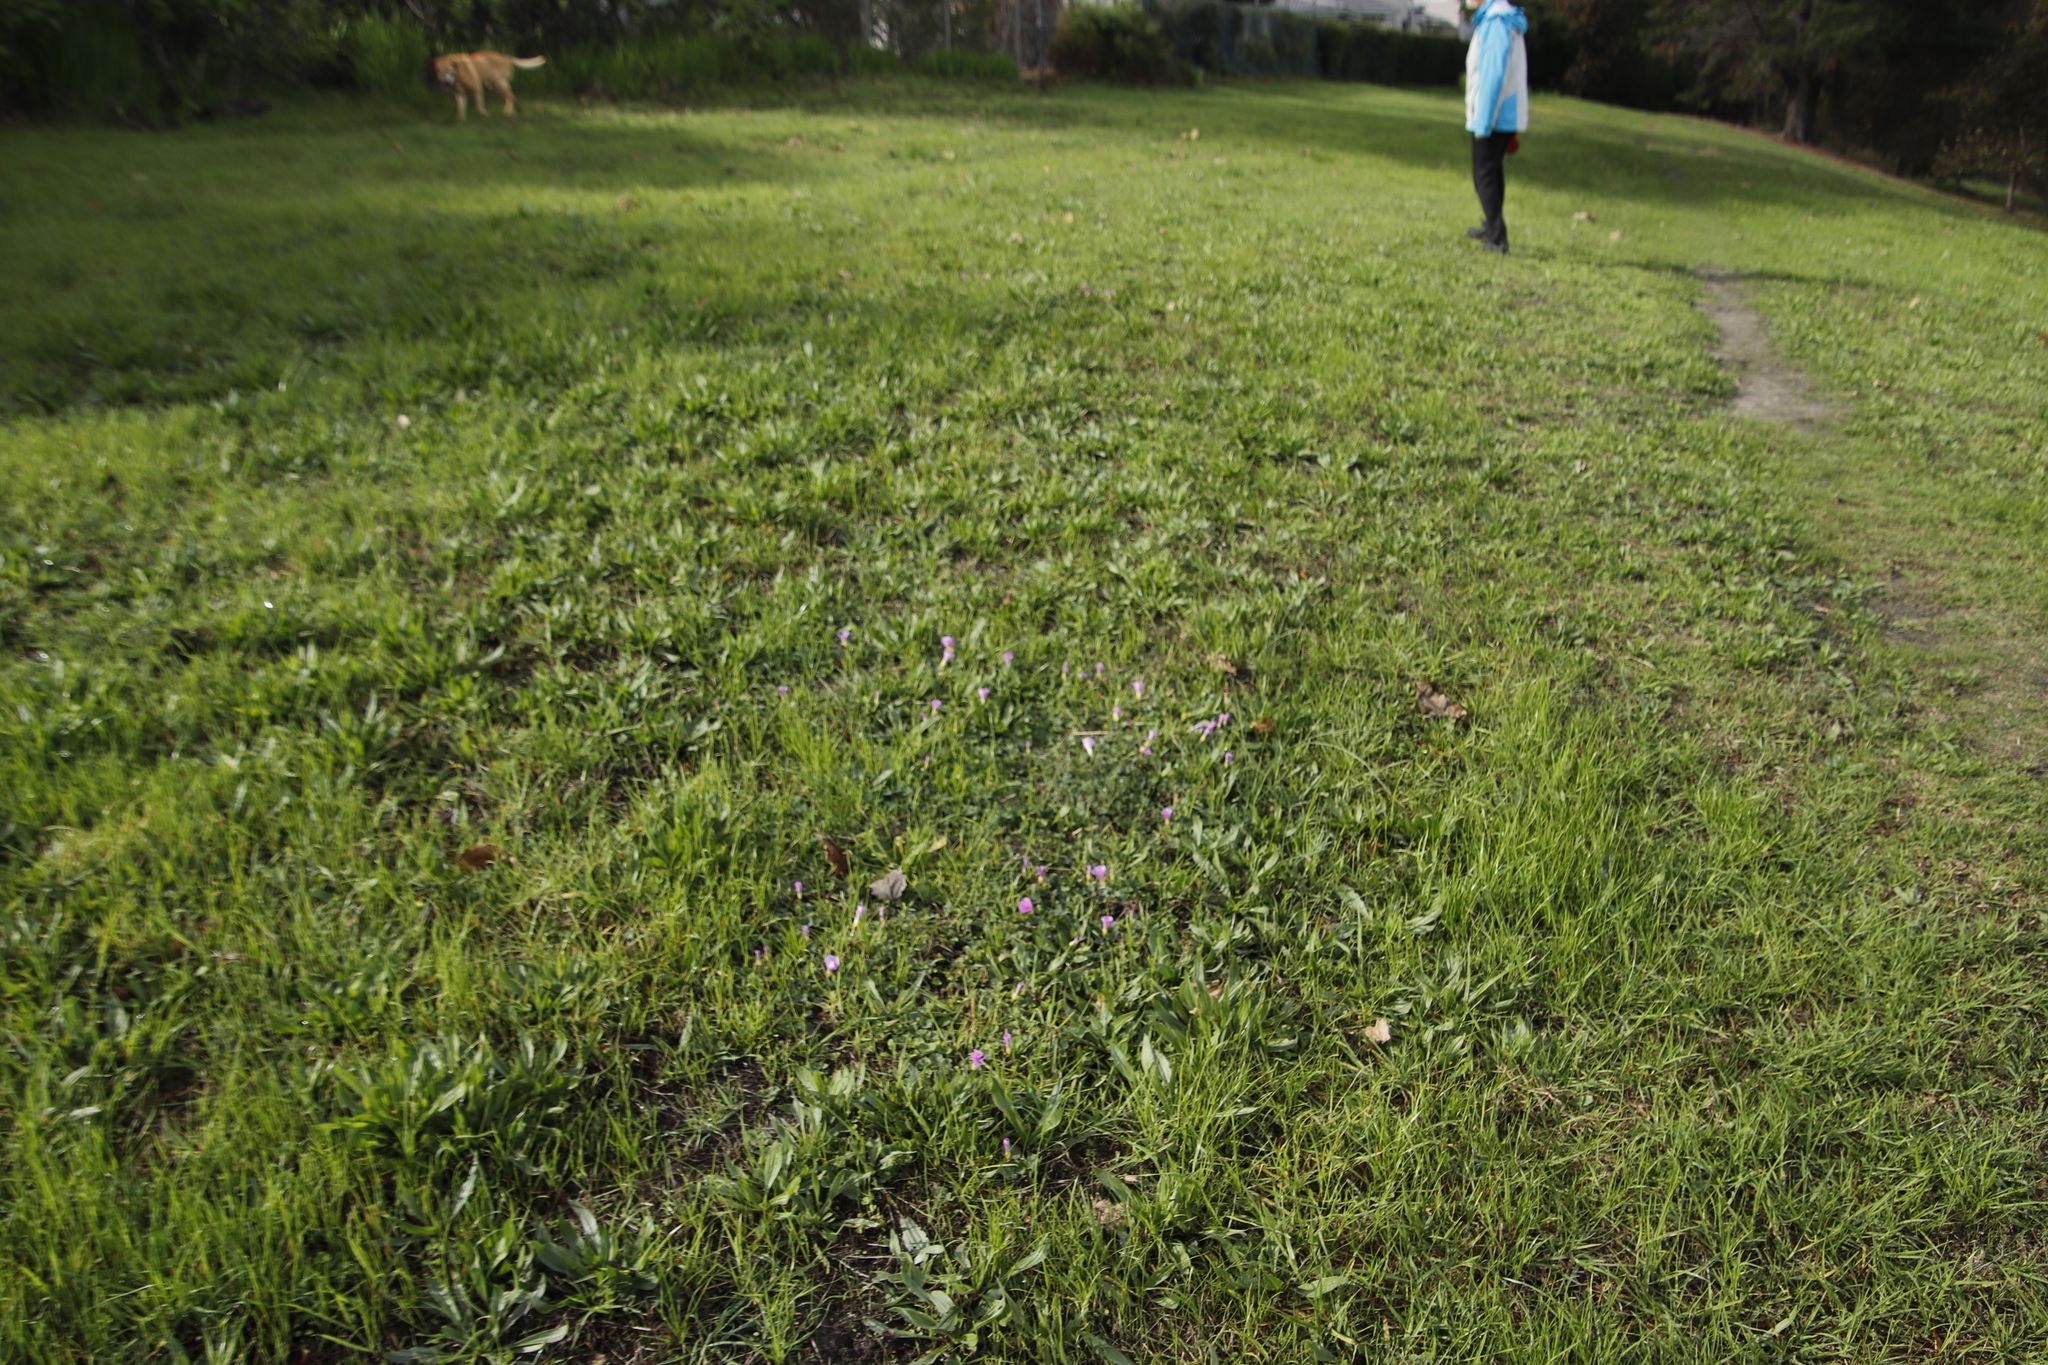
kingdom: Plantae
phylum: Tracheophyta
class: Magnoliopsida
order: Oxalidales
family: Oxalidaceae
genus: Oxalis
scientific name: Oxalis purpurea
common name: Purple woodsorrel
